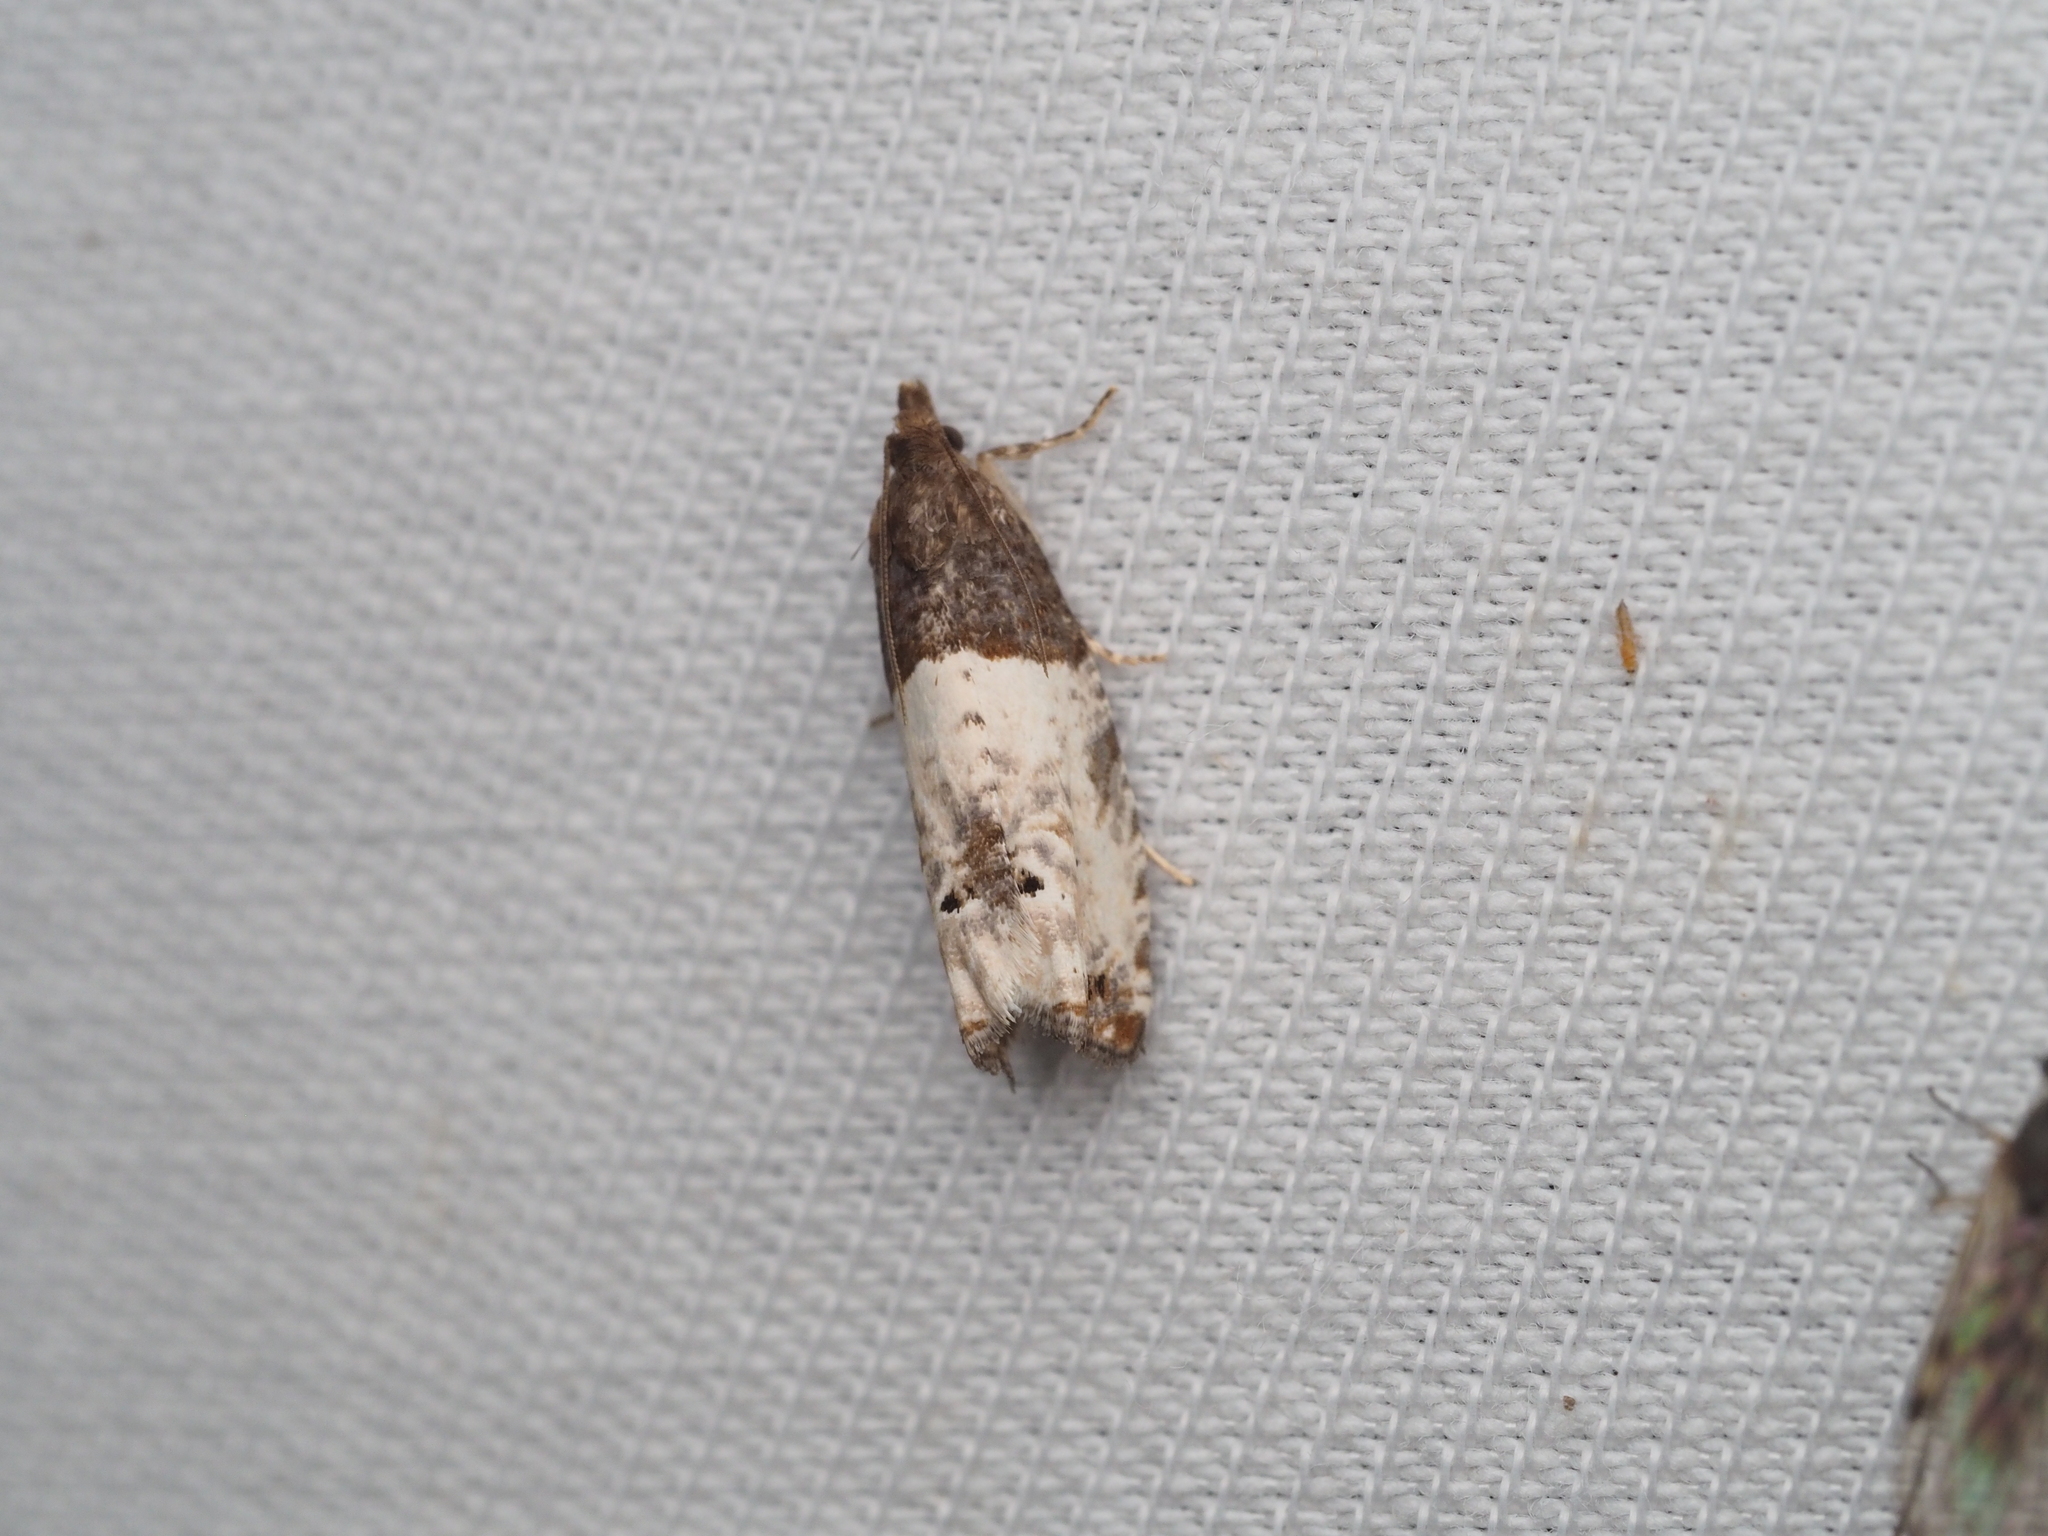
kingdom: Animalia
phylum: Arthropoda
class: Insecta
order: Lepidoptera
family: Tortricidae
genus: Epiblema
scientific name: Epiblema aquana
